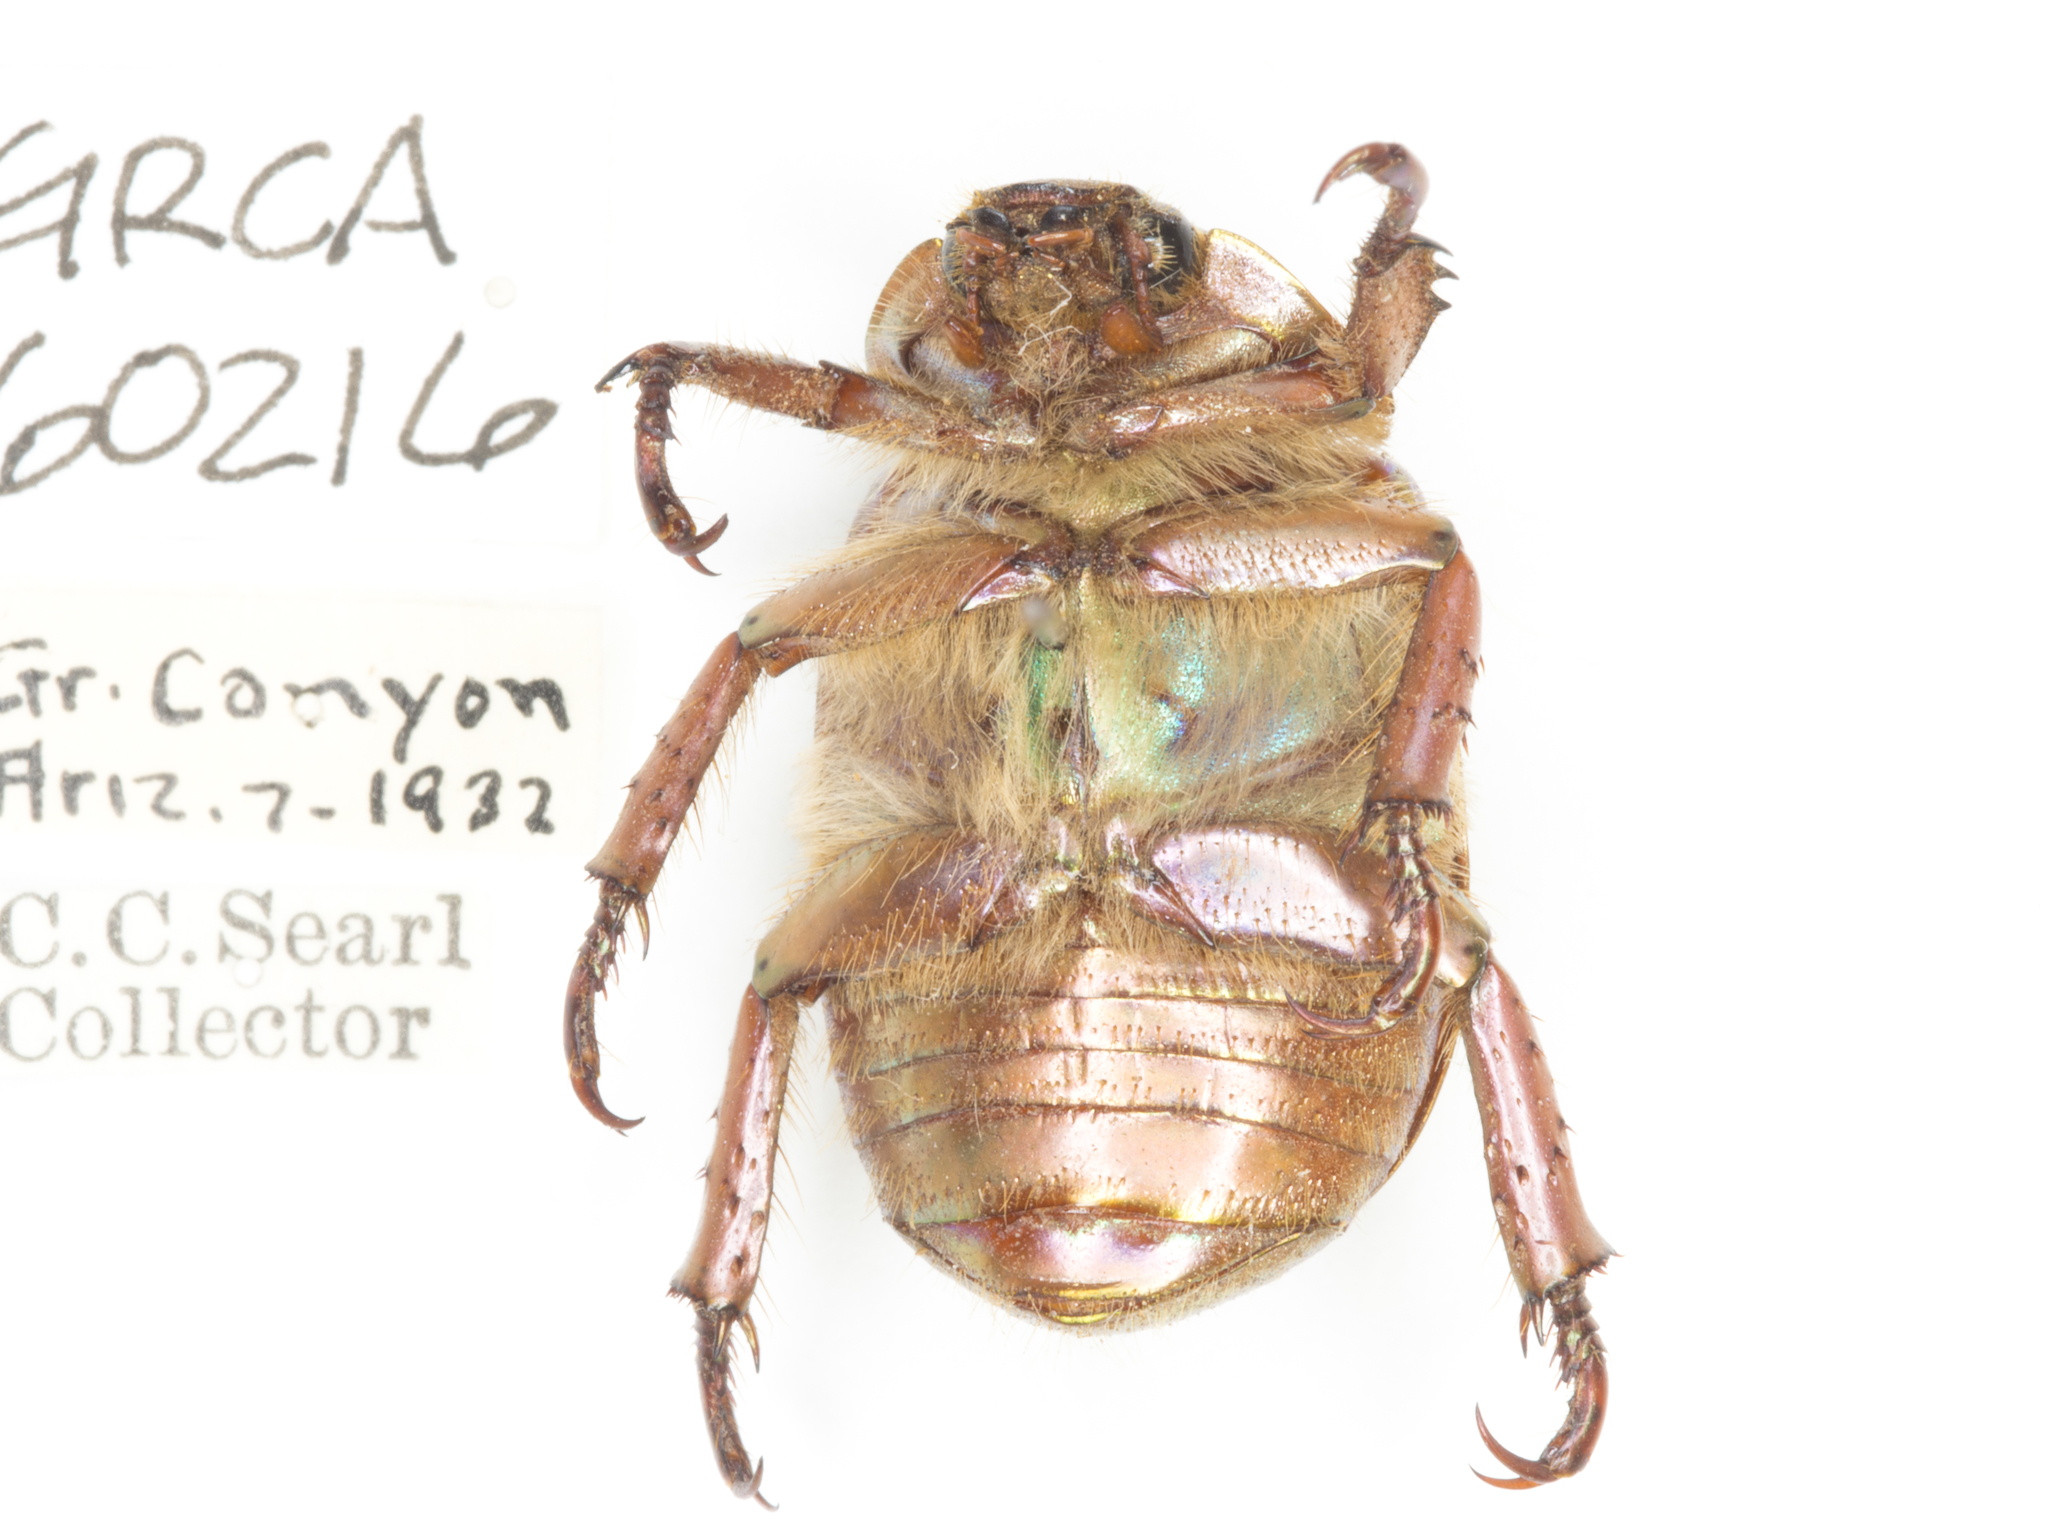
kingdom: Animalia
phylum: Arthropoda
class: Insecta
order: Coleoptera
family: Scarabaeidae
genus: Chrysina
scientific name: Chrysina lecontei
